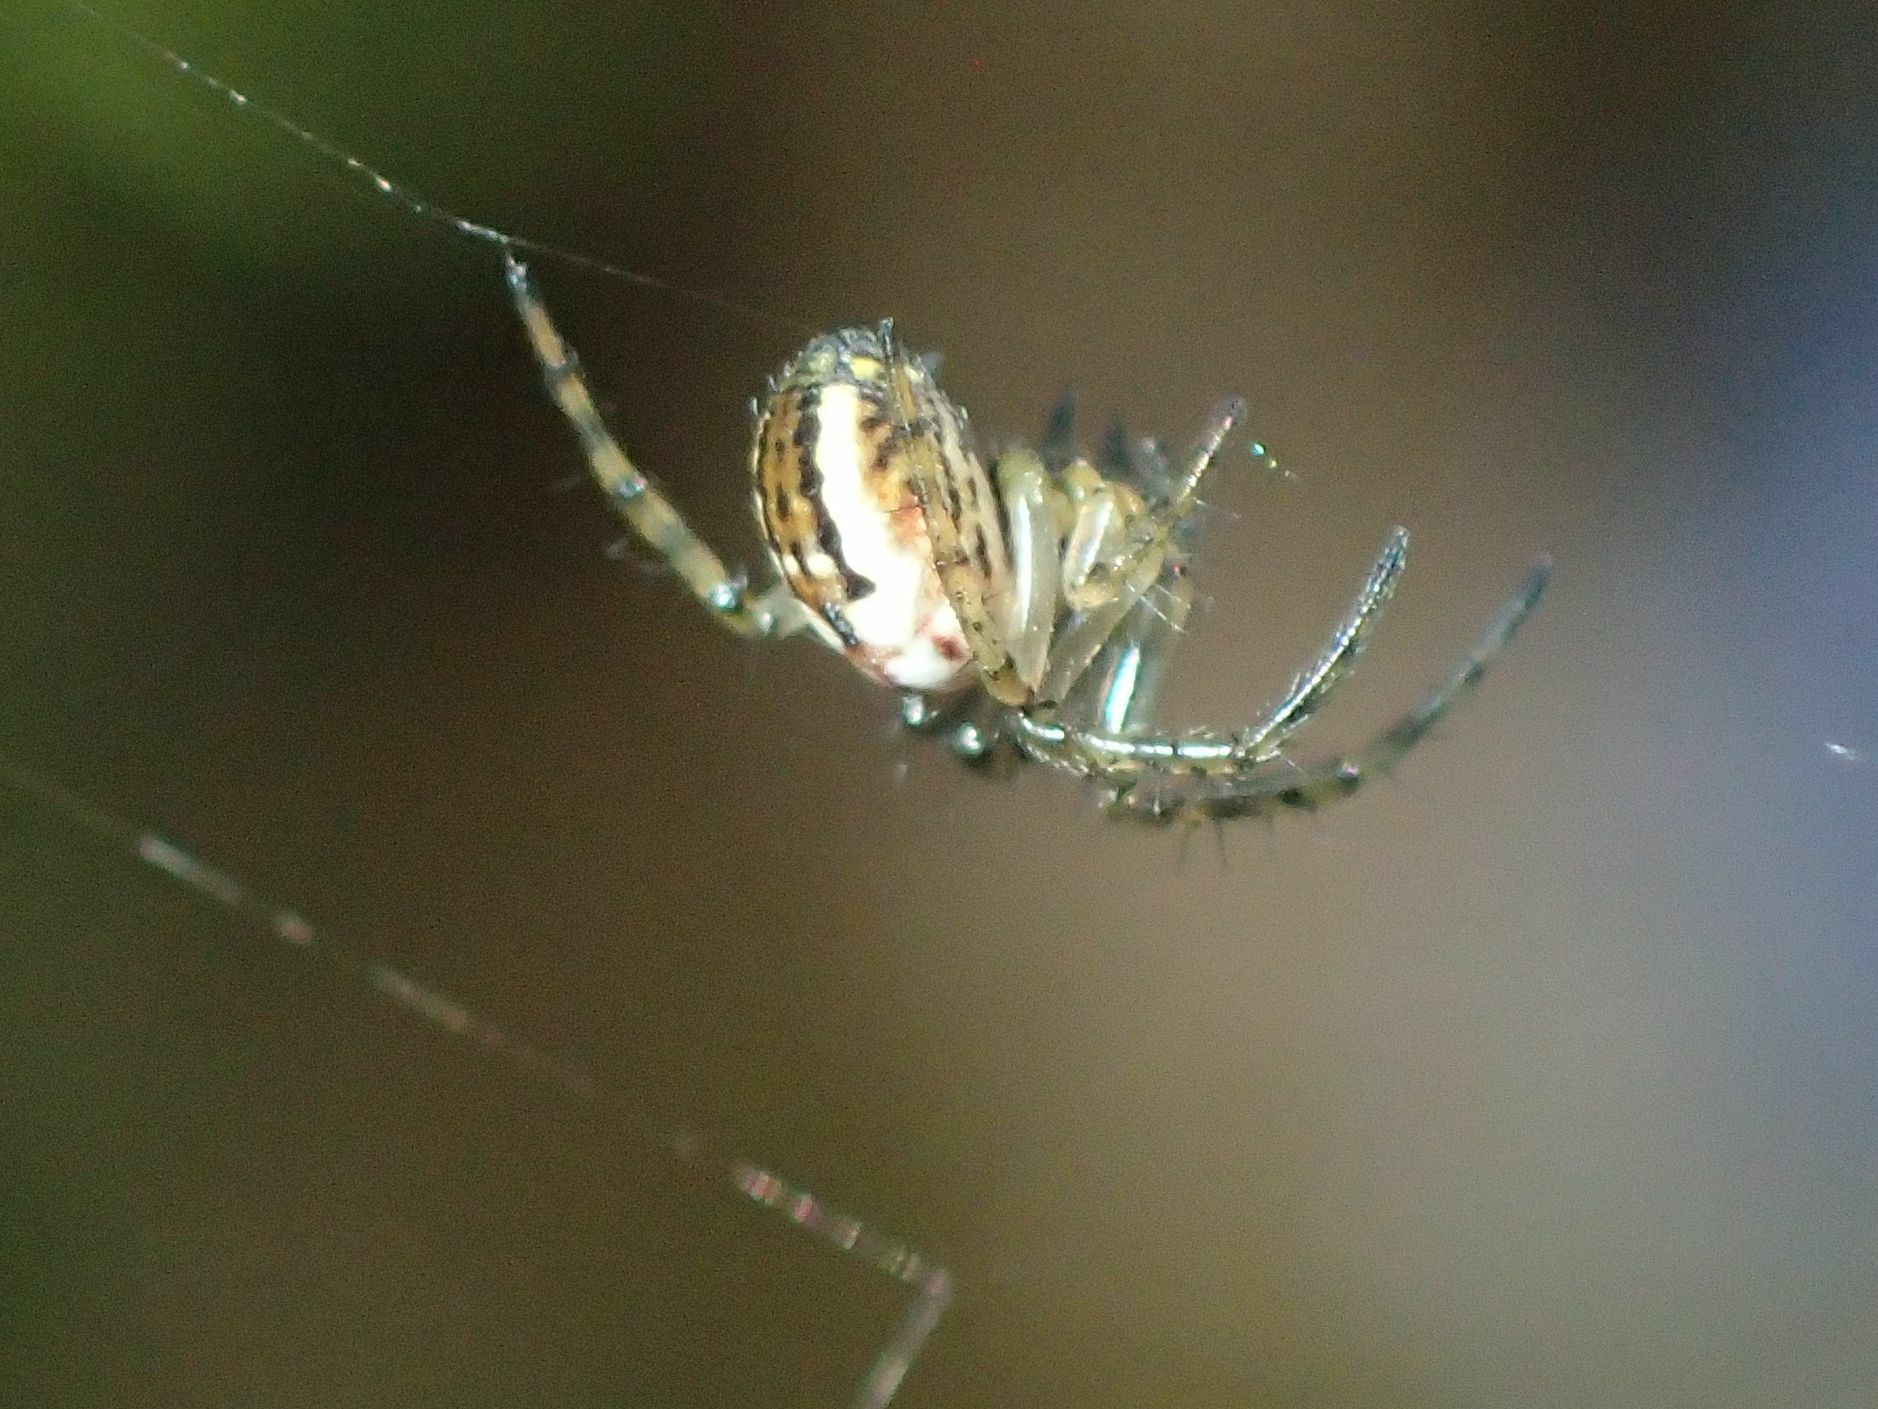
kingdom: Animalia
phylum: Arthropoda
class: Arachnida
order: Araneae
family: Araneidae
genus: Mangora
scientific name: Mangora acalypha
